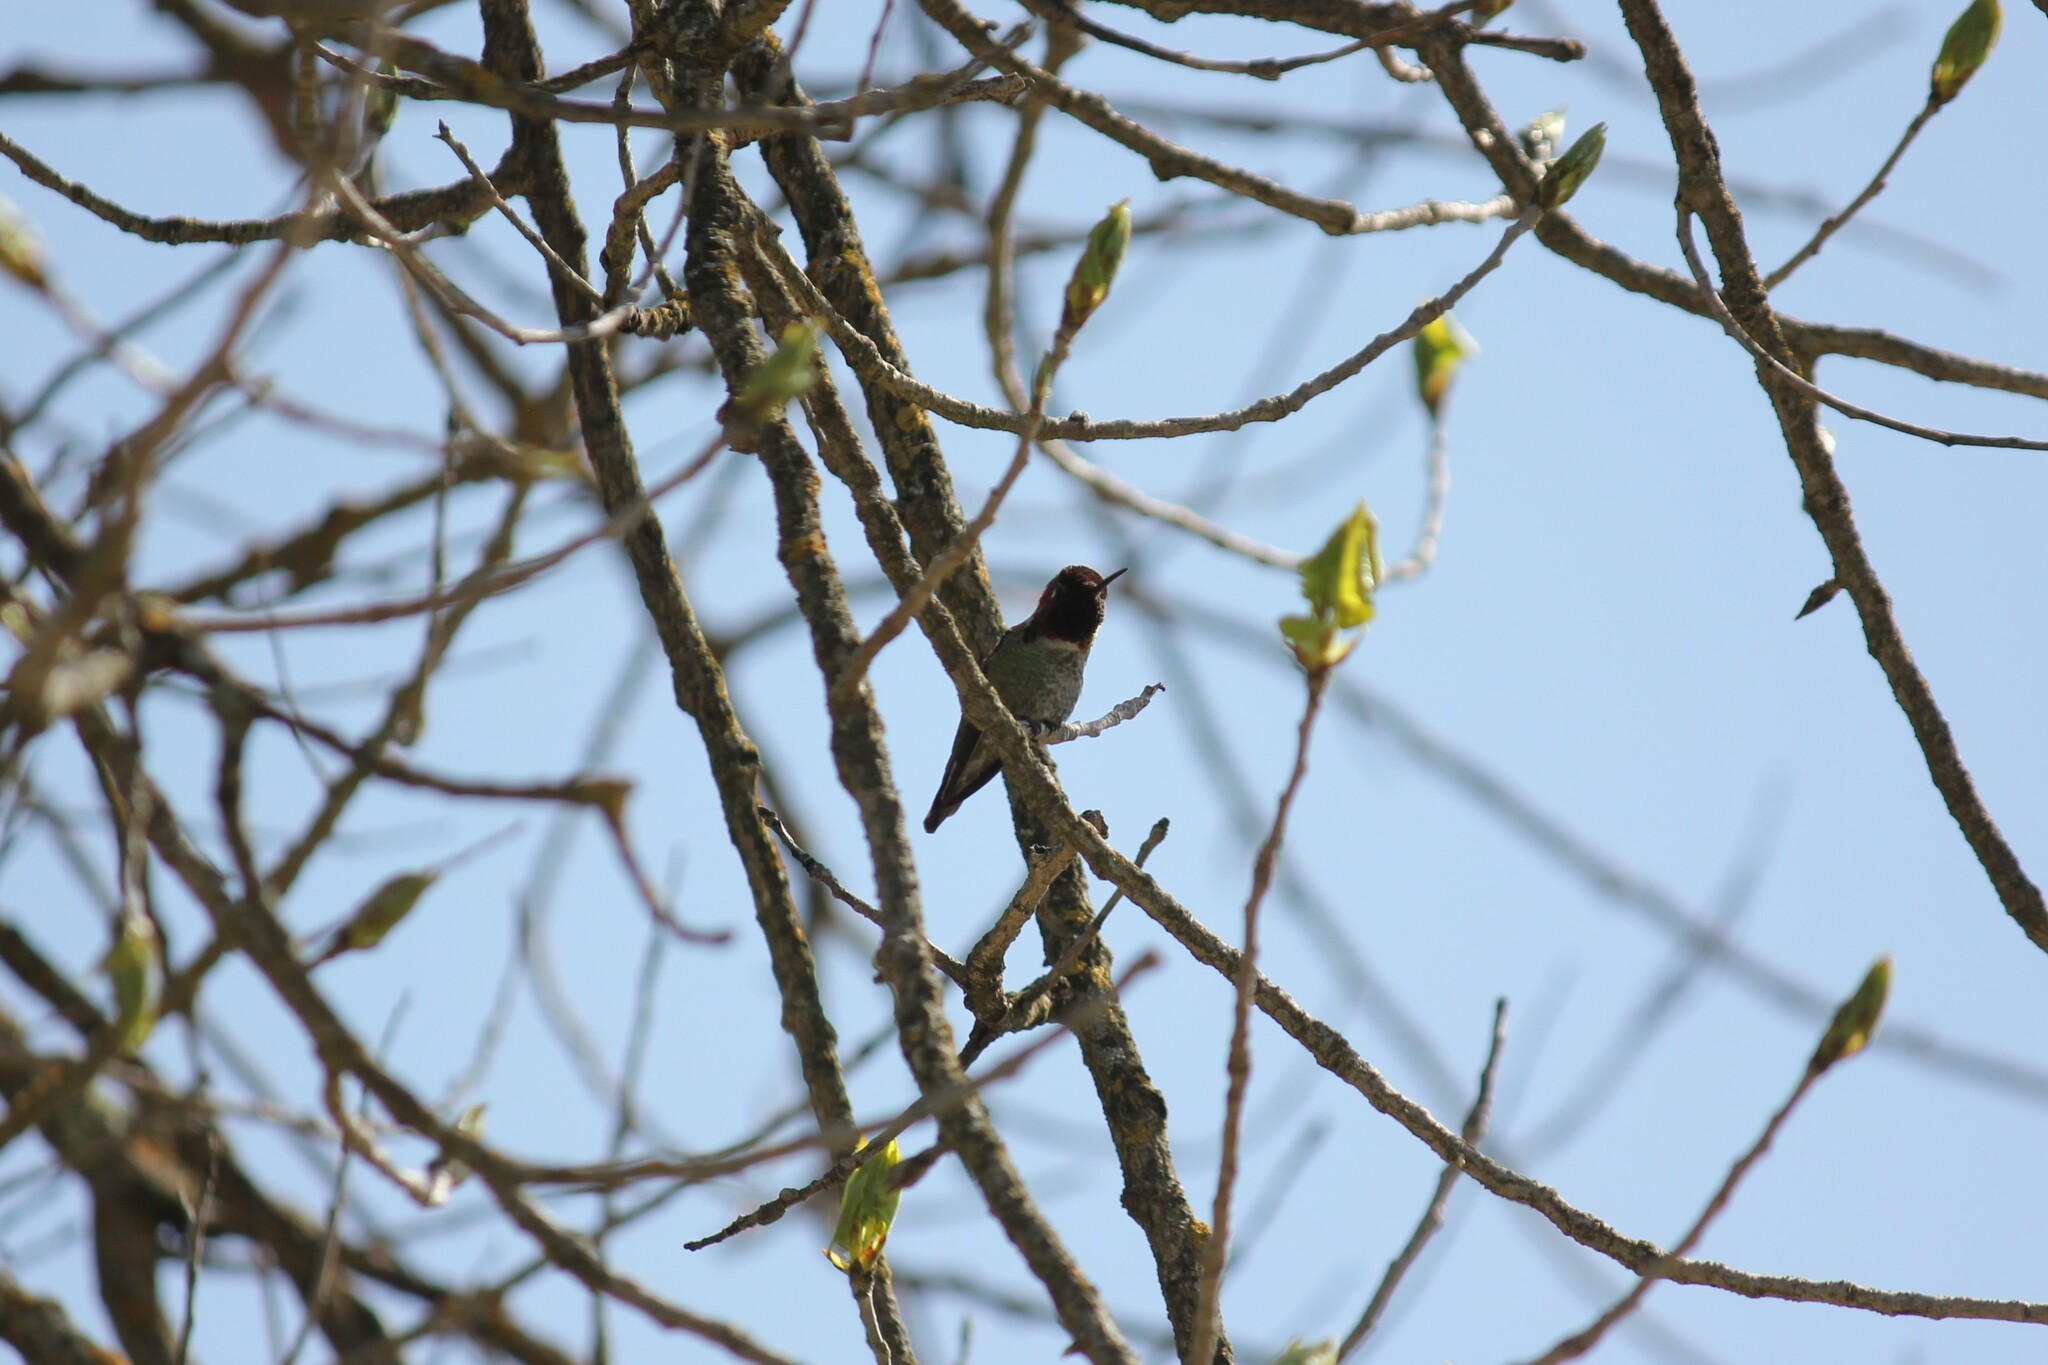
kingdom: Animalia
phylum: Chordata
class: Aves
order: Apodiformes
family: Trochilidae
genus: Calypte
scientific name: Calypte anna
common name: Anna's hummingbird
